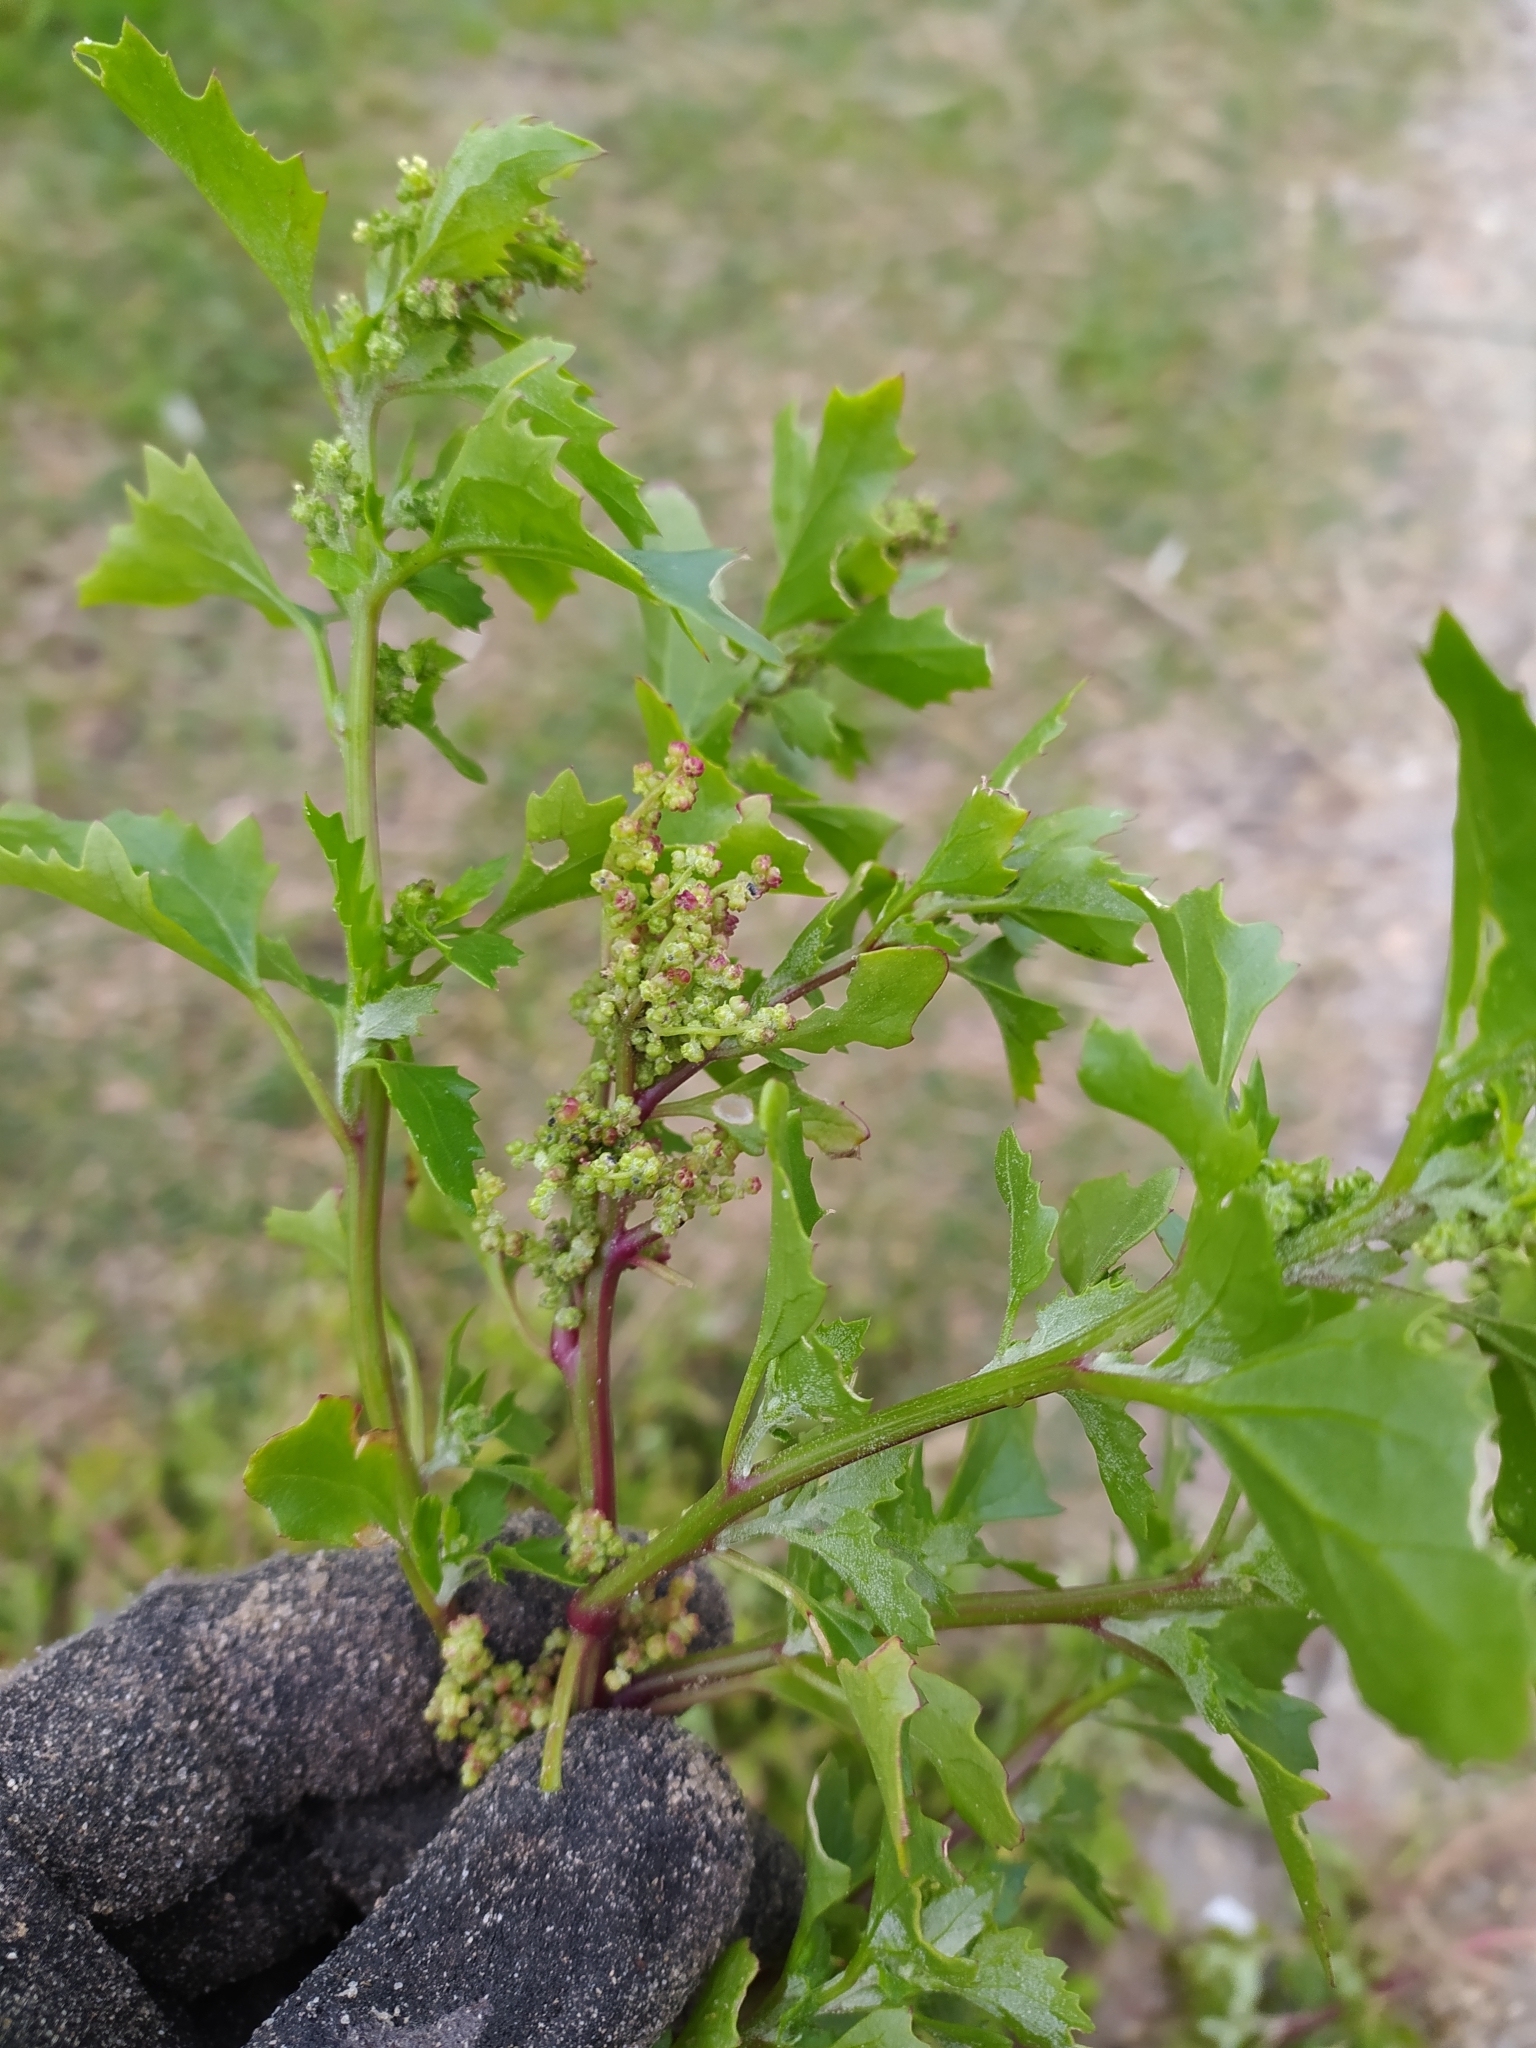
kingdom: Plantae
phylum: Tracheophyta
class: Magnoliopsida
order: Caryophyllales
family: Amaranthaceae
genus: Chenopodiastrum
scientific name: Chenopodiastrum murale
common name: Sowbane
